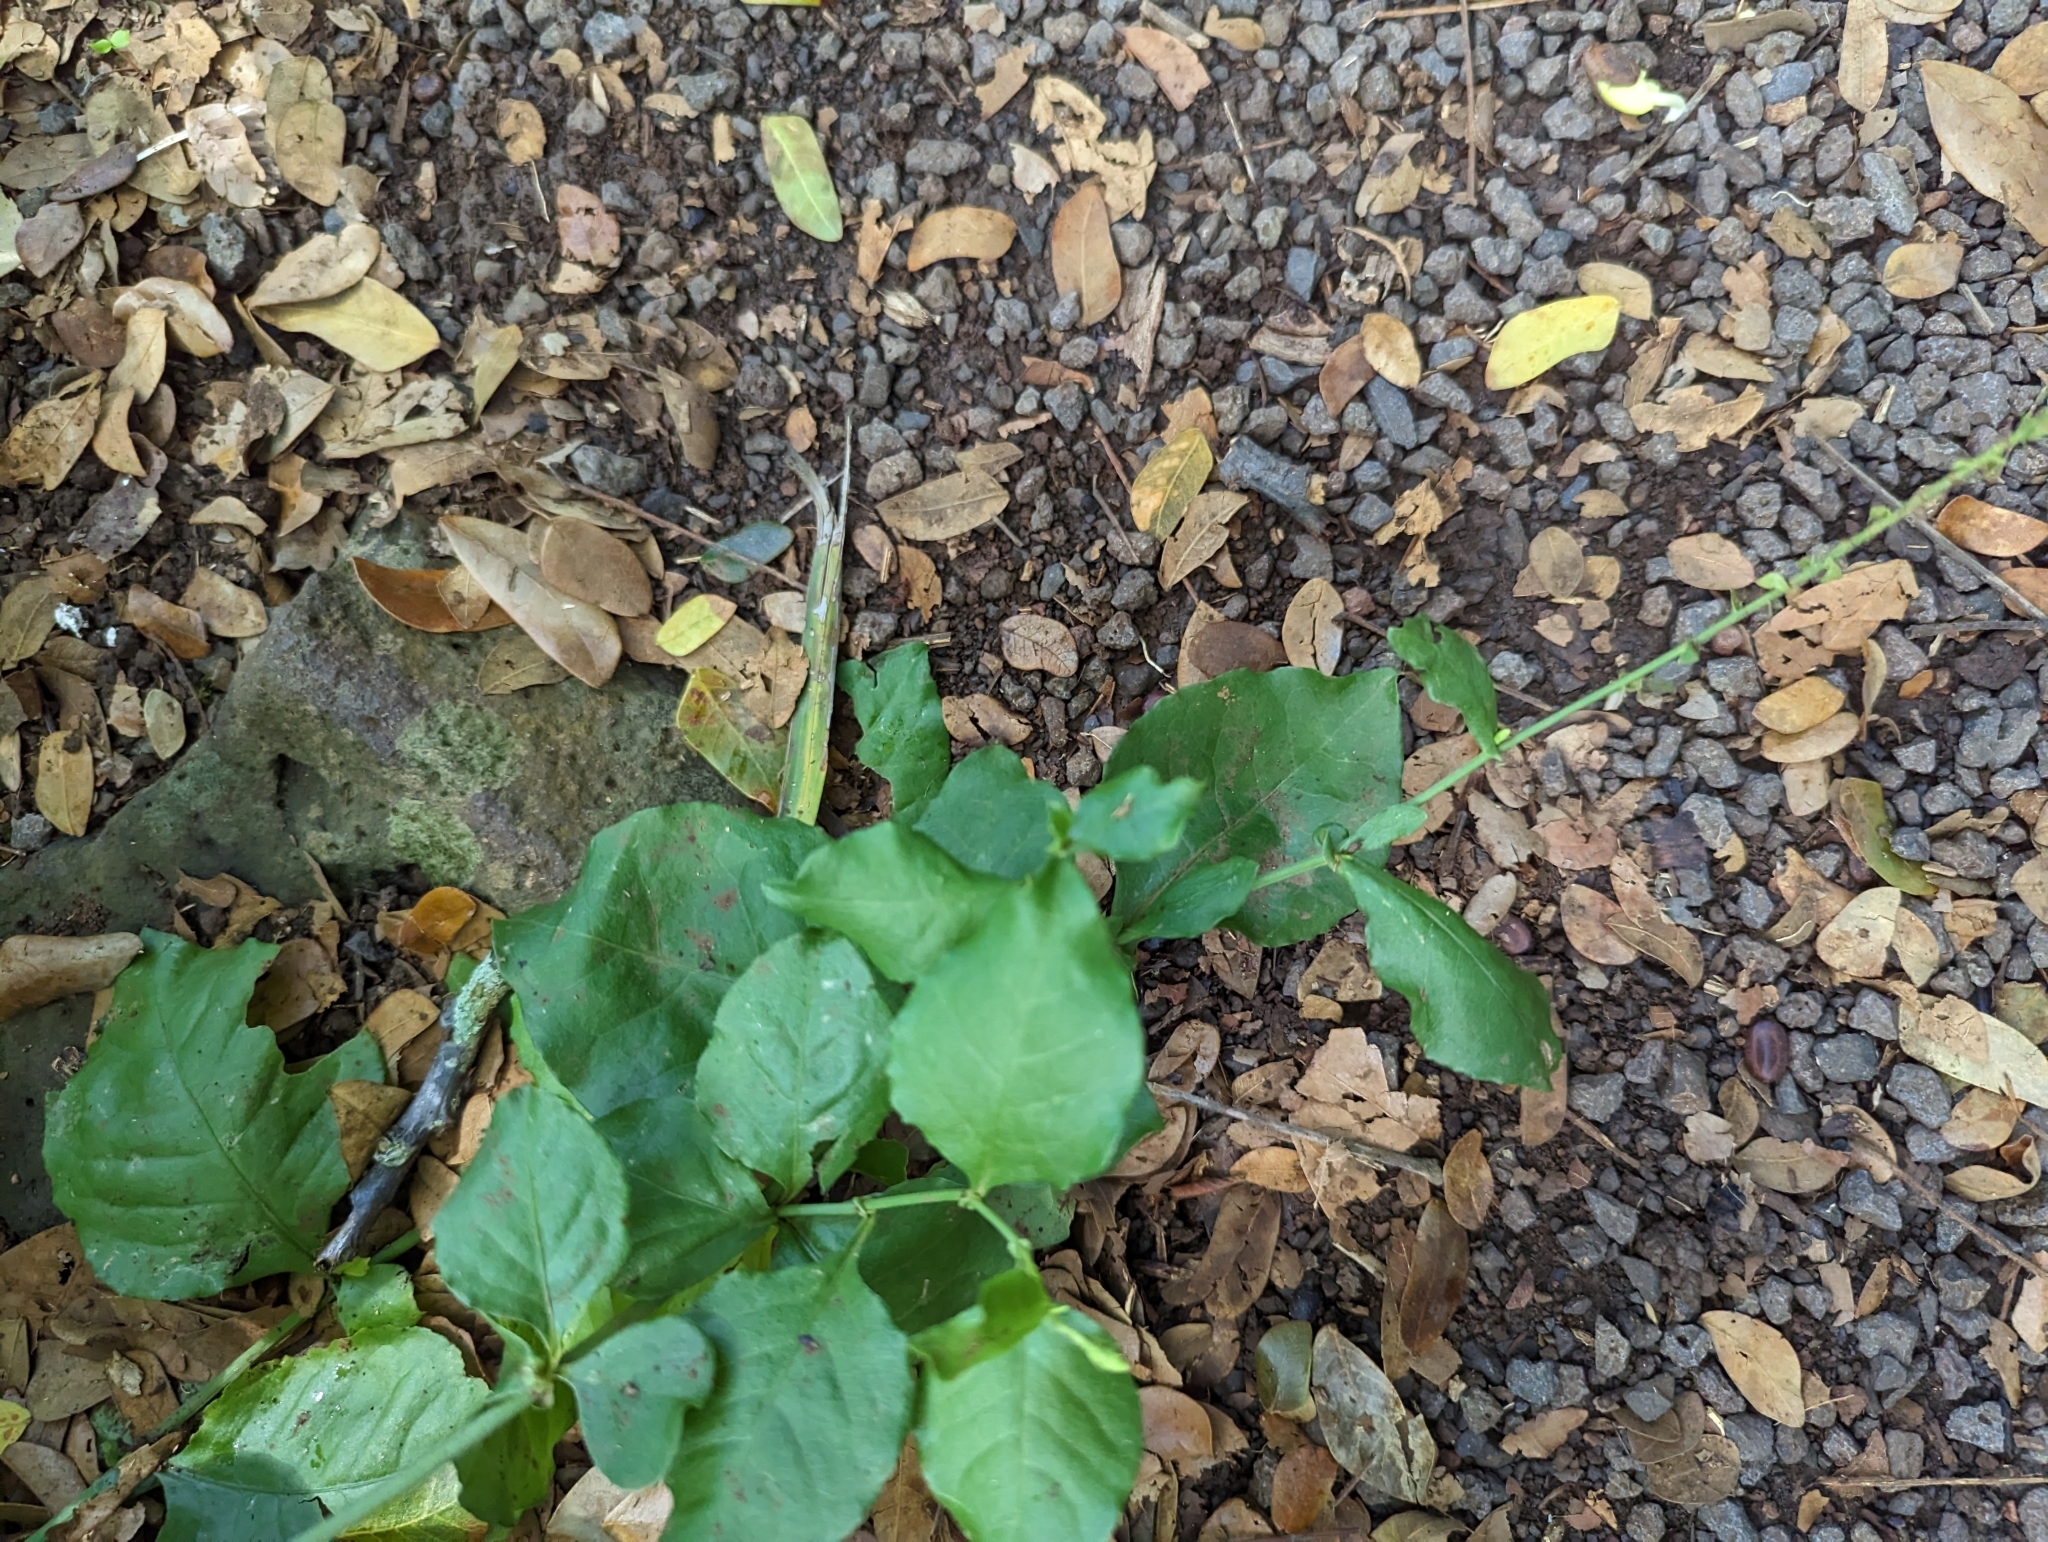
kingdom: Plantae
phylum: Tracheophyta
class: Magnoliopsida
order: Caryophyllales
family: Plumbaginaceae
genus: Plumbago
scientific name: Plumbago zeylanica
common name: Doctorbush
